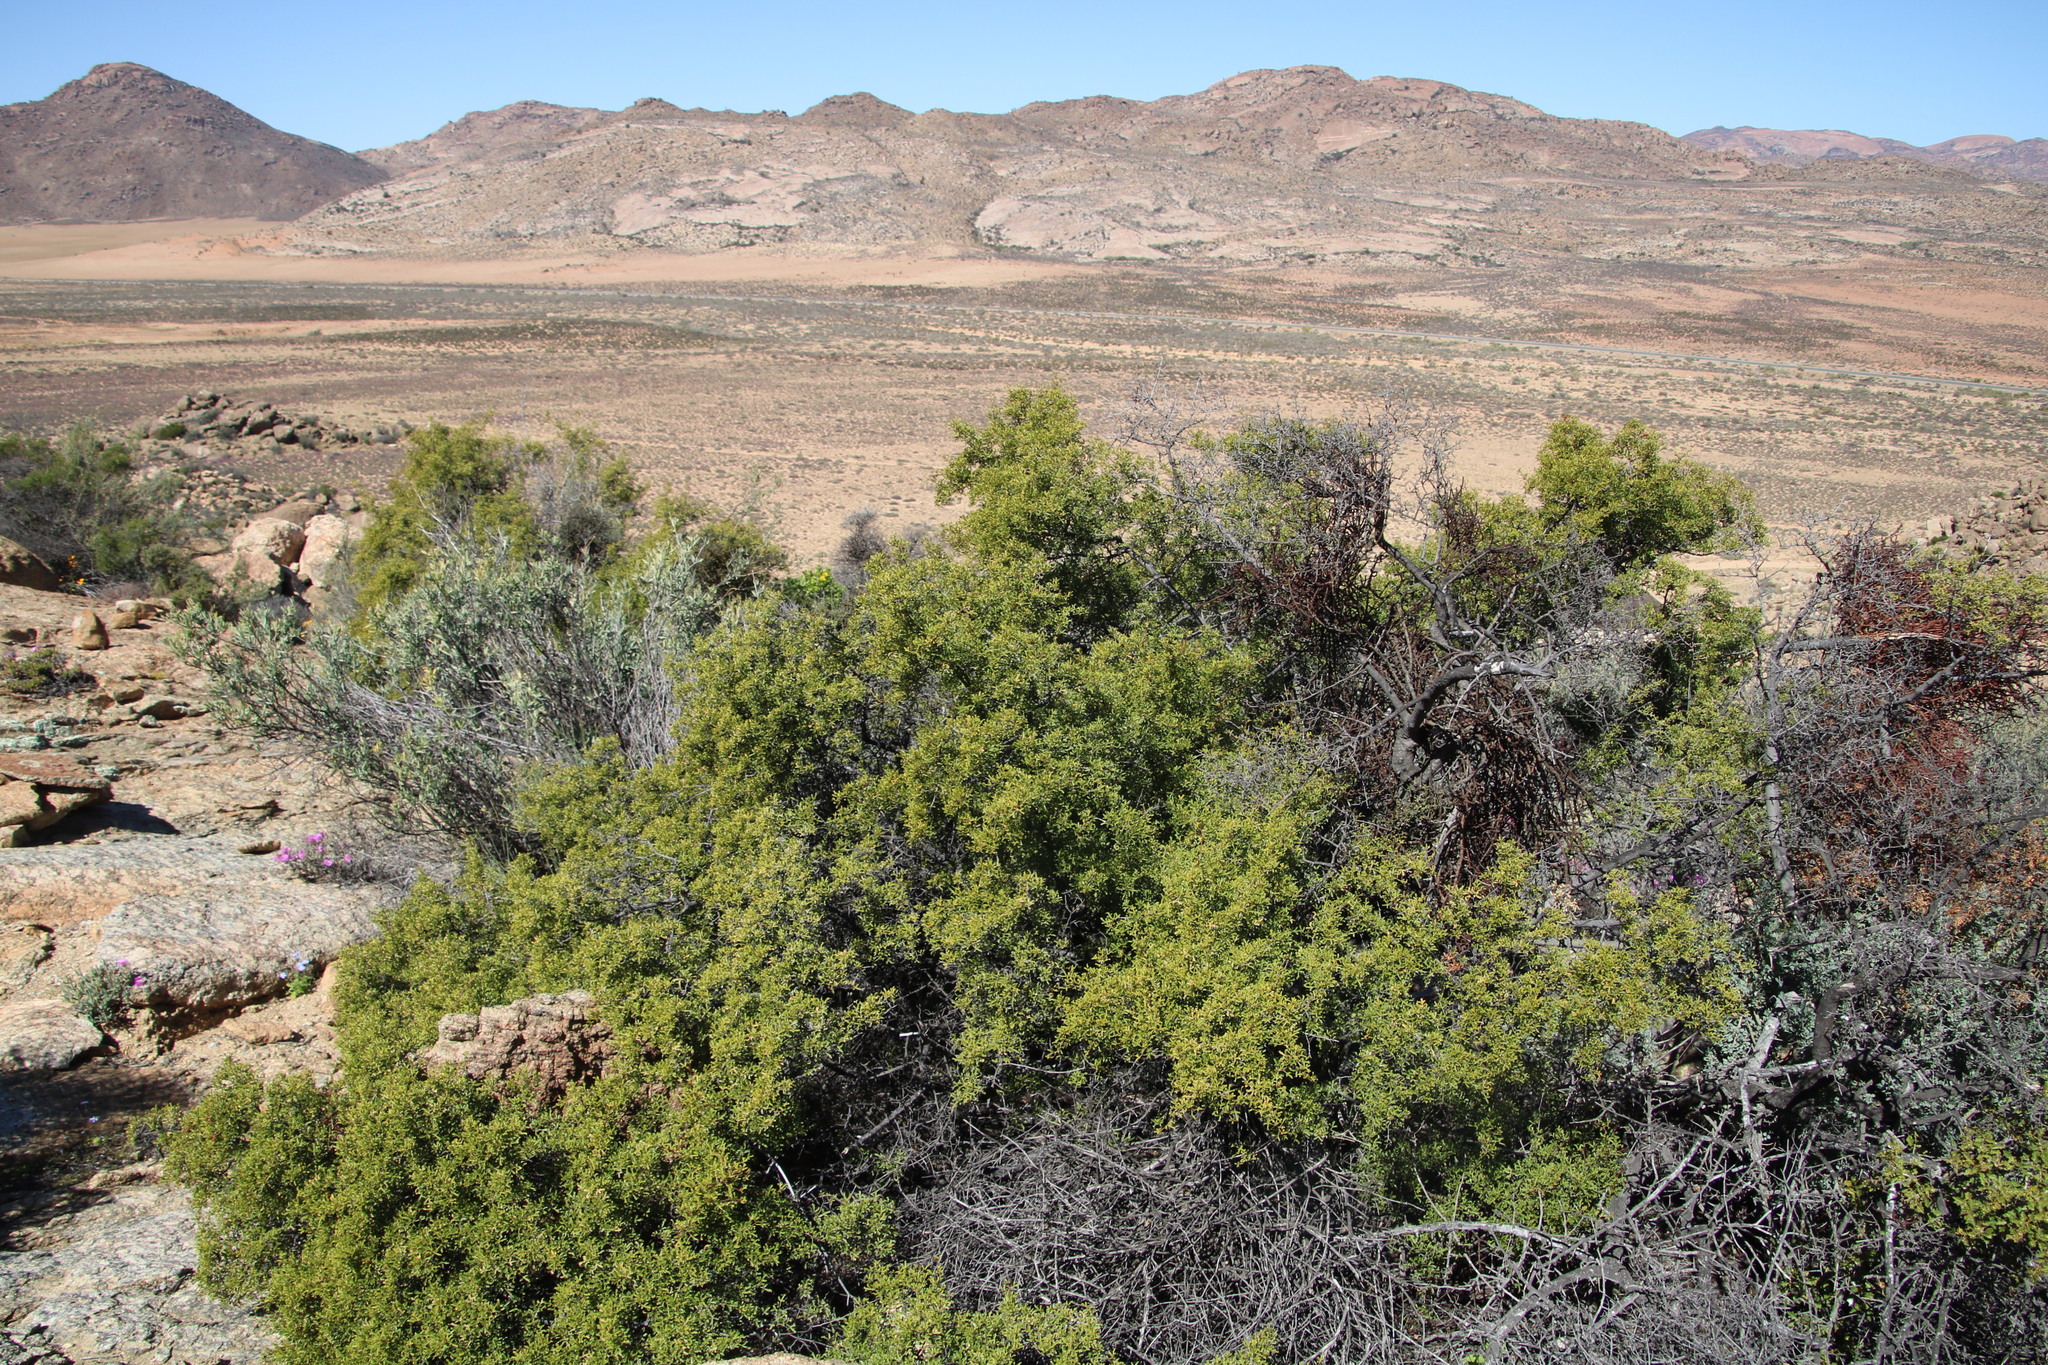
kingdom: Plantae
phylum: Tracheophyta
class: Magnoliopsida
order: Sapindales
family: Anacardiaceae
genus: Searsia
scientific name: Searsia undulata
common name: Namaqua kunibush
